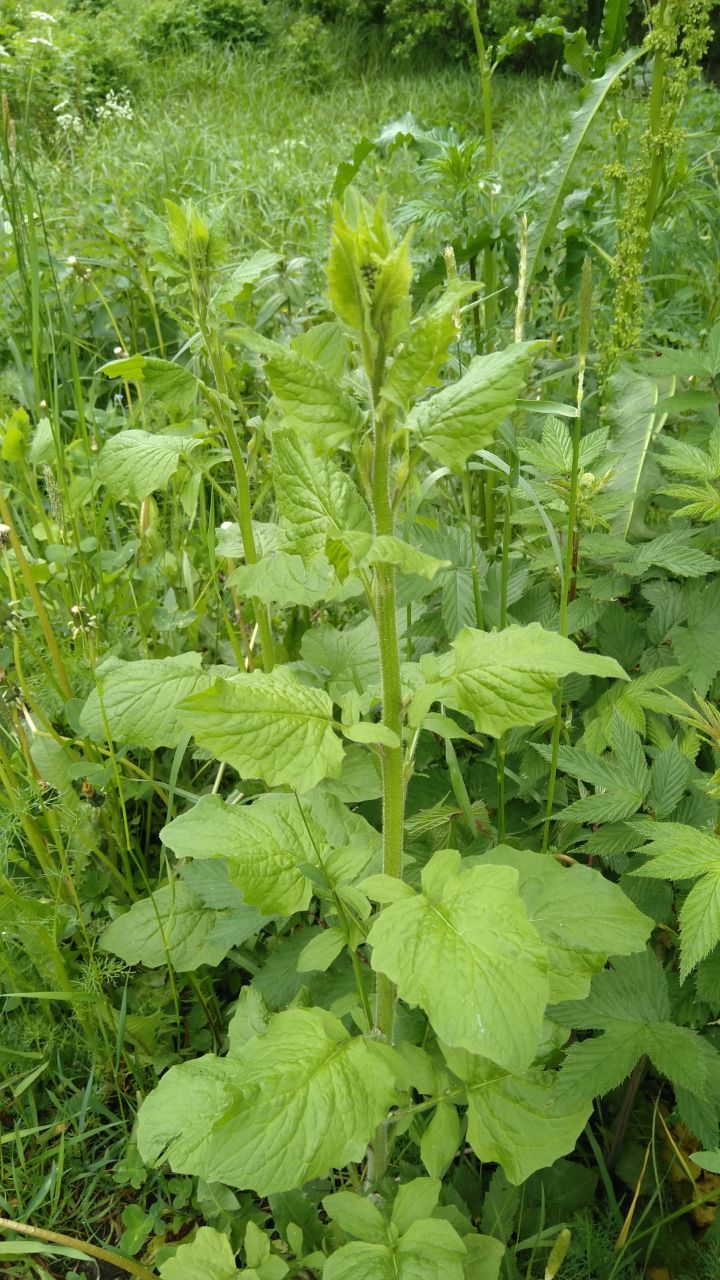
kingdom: Plantae
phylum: Tracheophyta
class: Magnoliopsida
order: Asterales
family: Asteraceae
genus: Lapsana
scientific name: Lapsana communis
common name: Nipplewort
